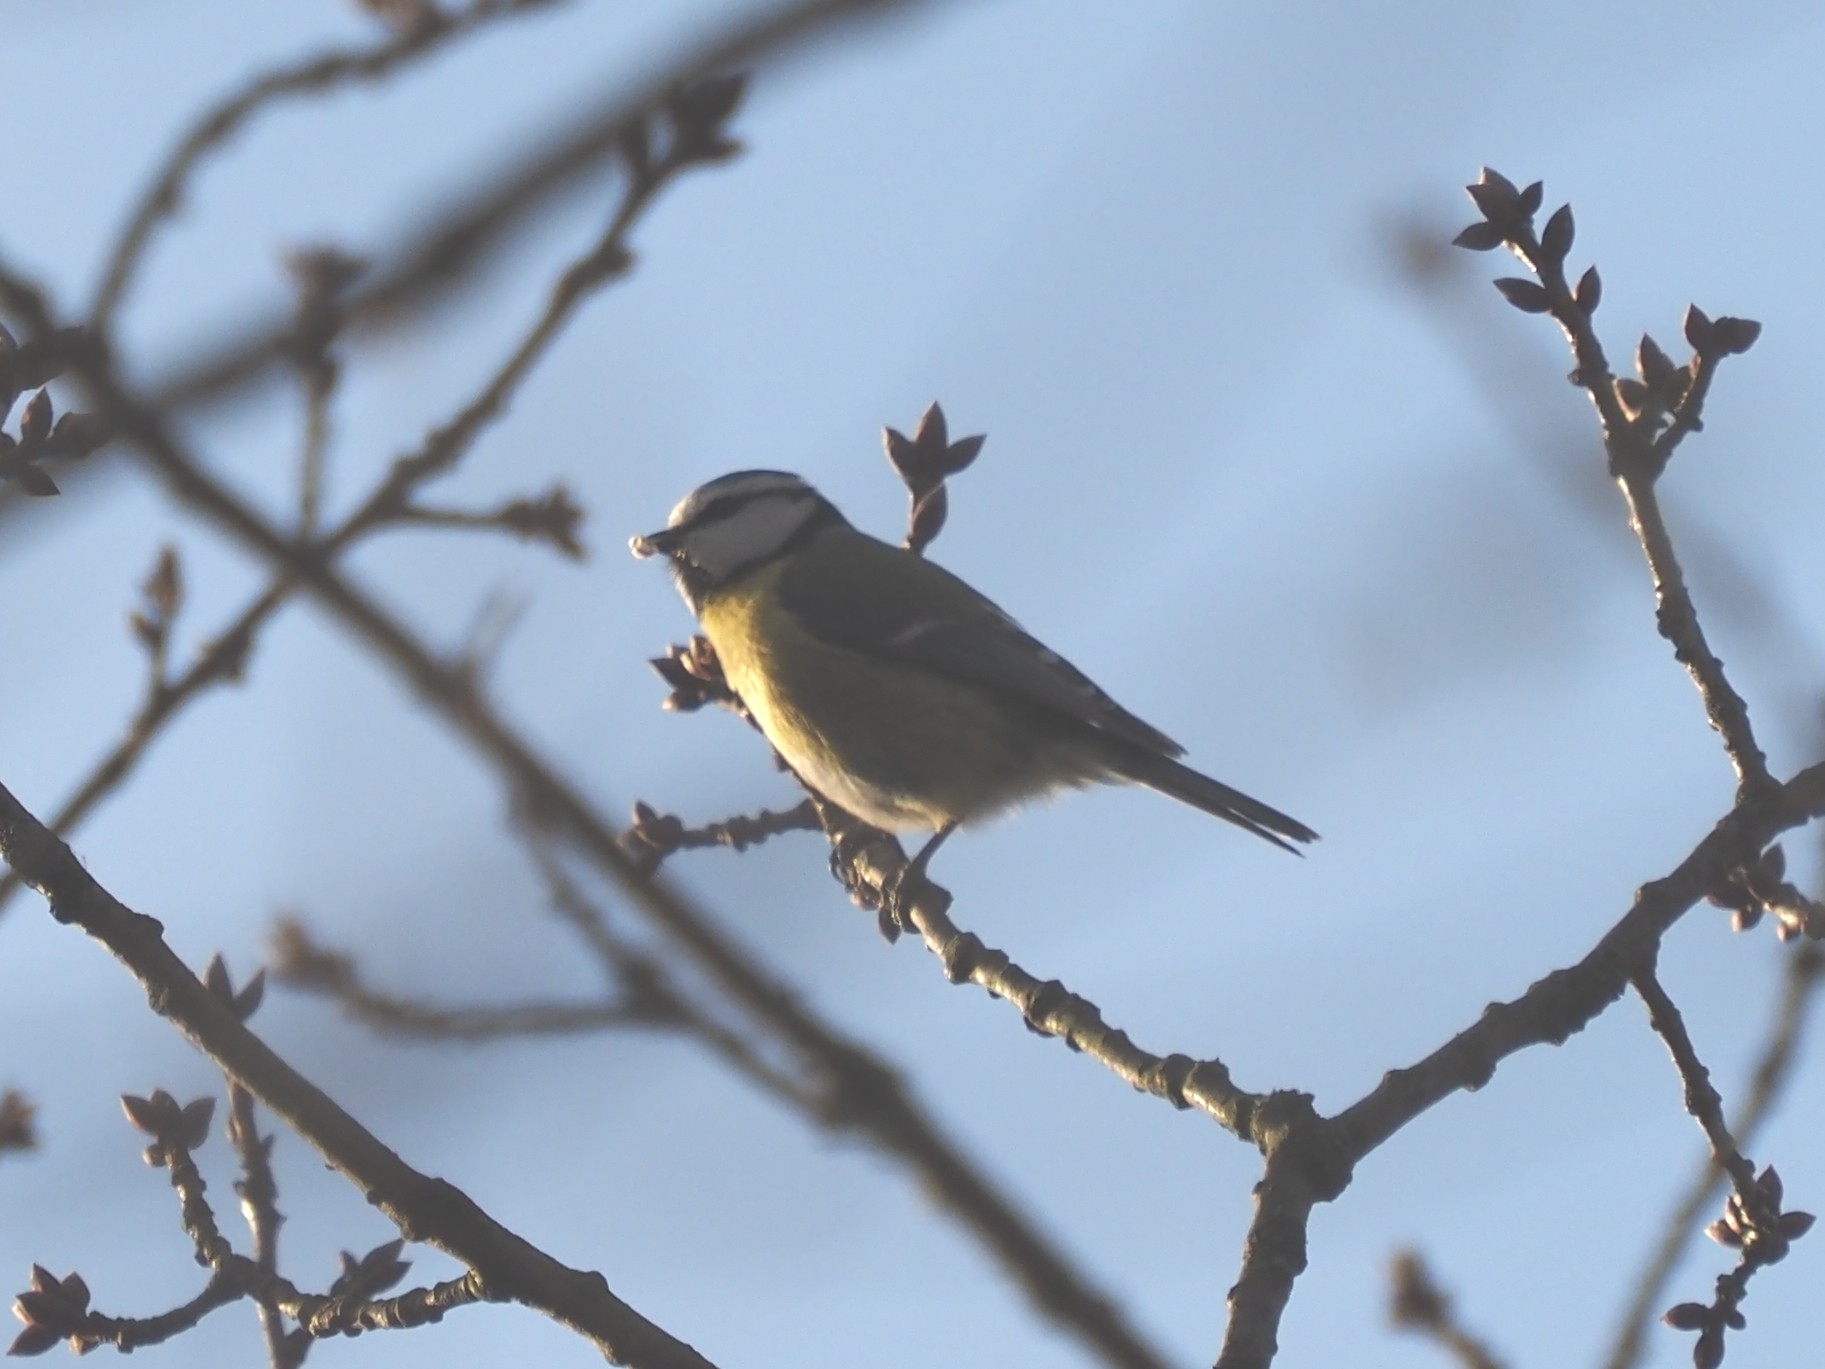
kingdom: Animalia
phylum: Chordata
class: Aves
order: Passeriformes
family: Paridae
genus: Cyanistes
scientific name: Cyanistes caeruleus
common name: Eurasian blue tit
